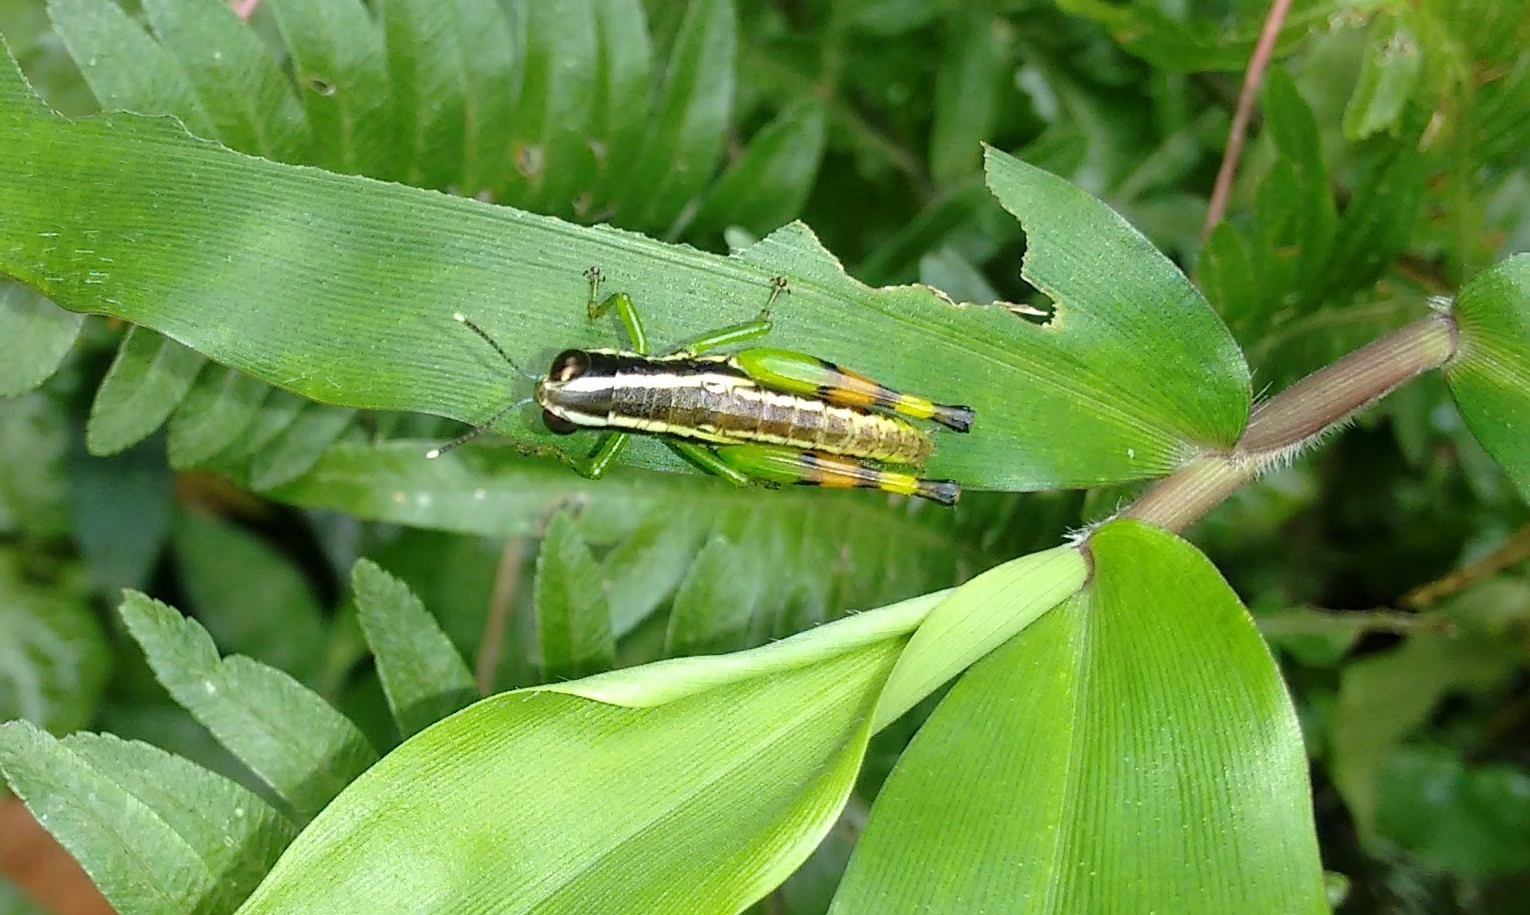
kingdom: Animalia
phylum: Arthropoda
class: Insecta
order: Orthoptera
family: Acrididae
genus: Chitaura
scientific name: Chitaura indica
